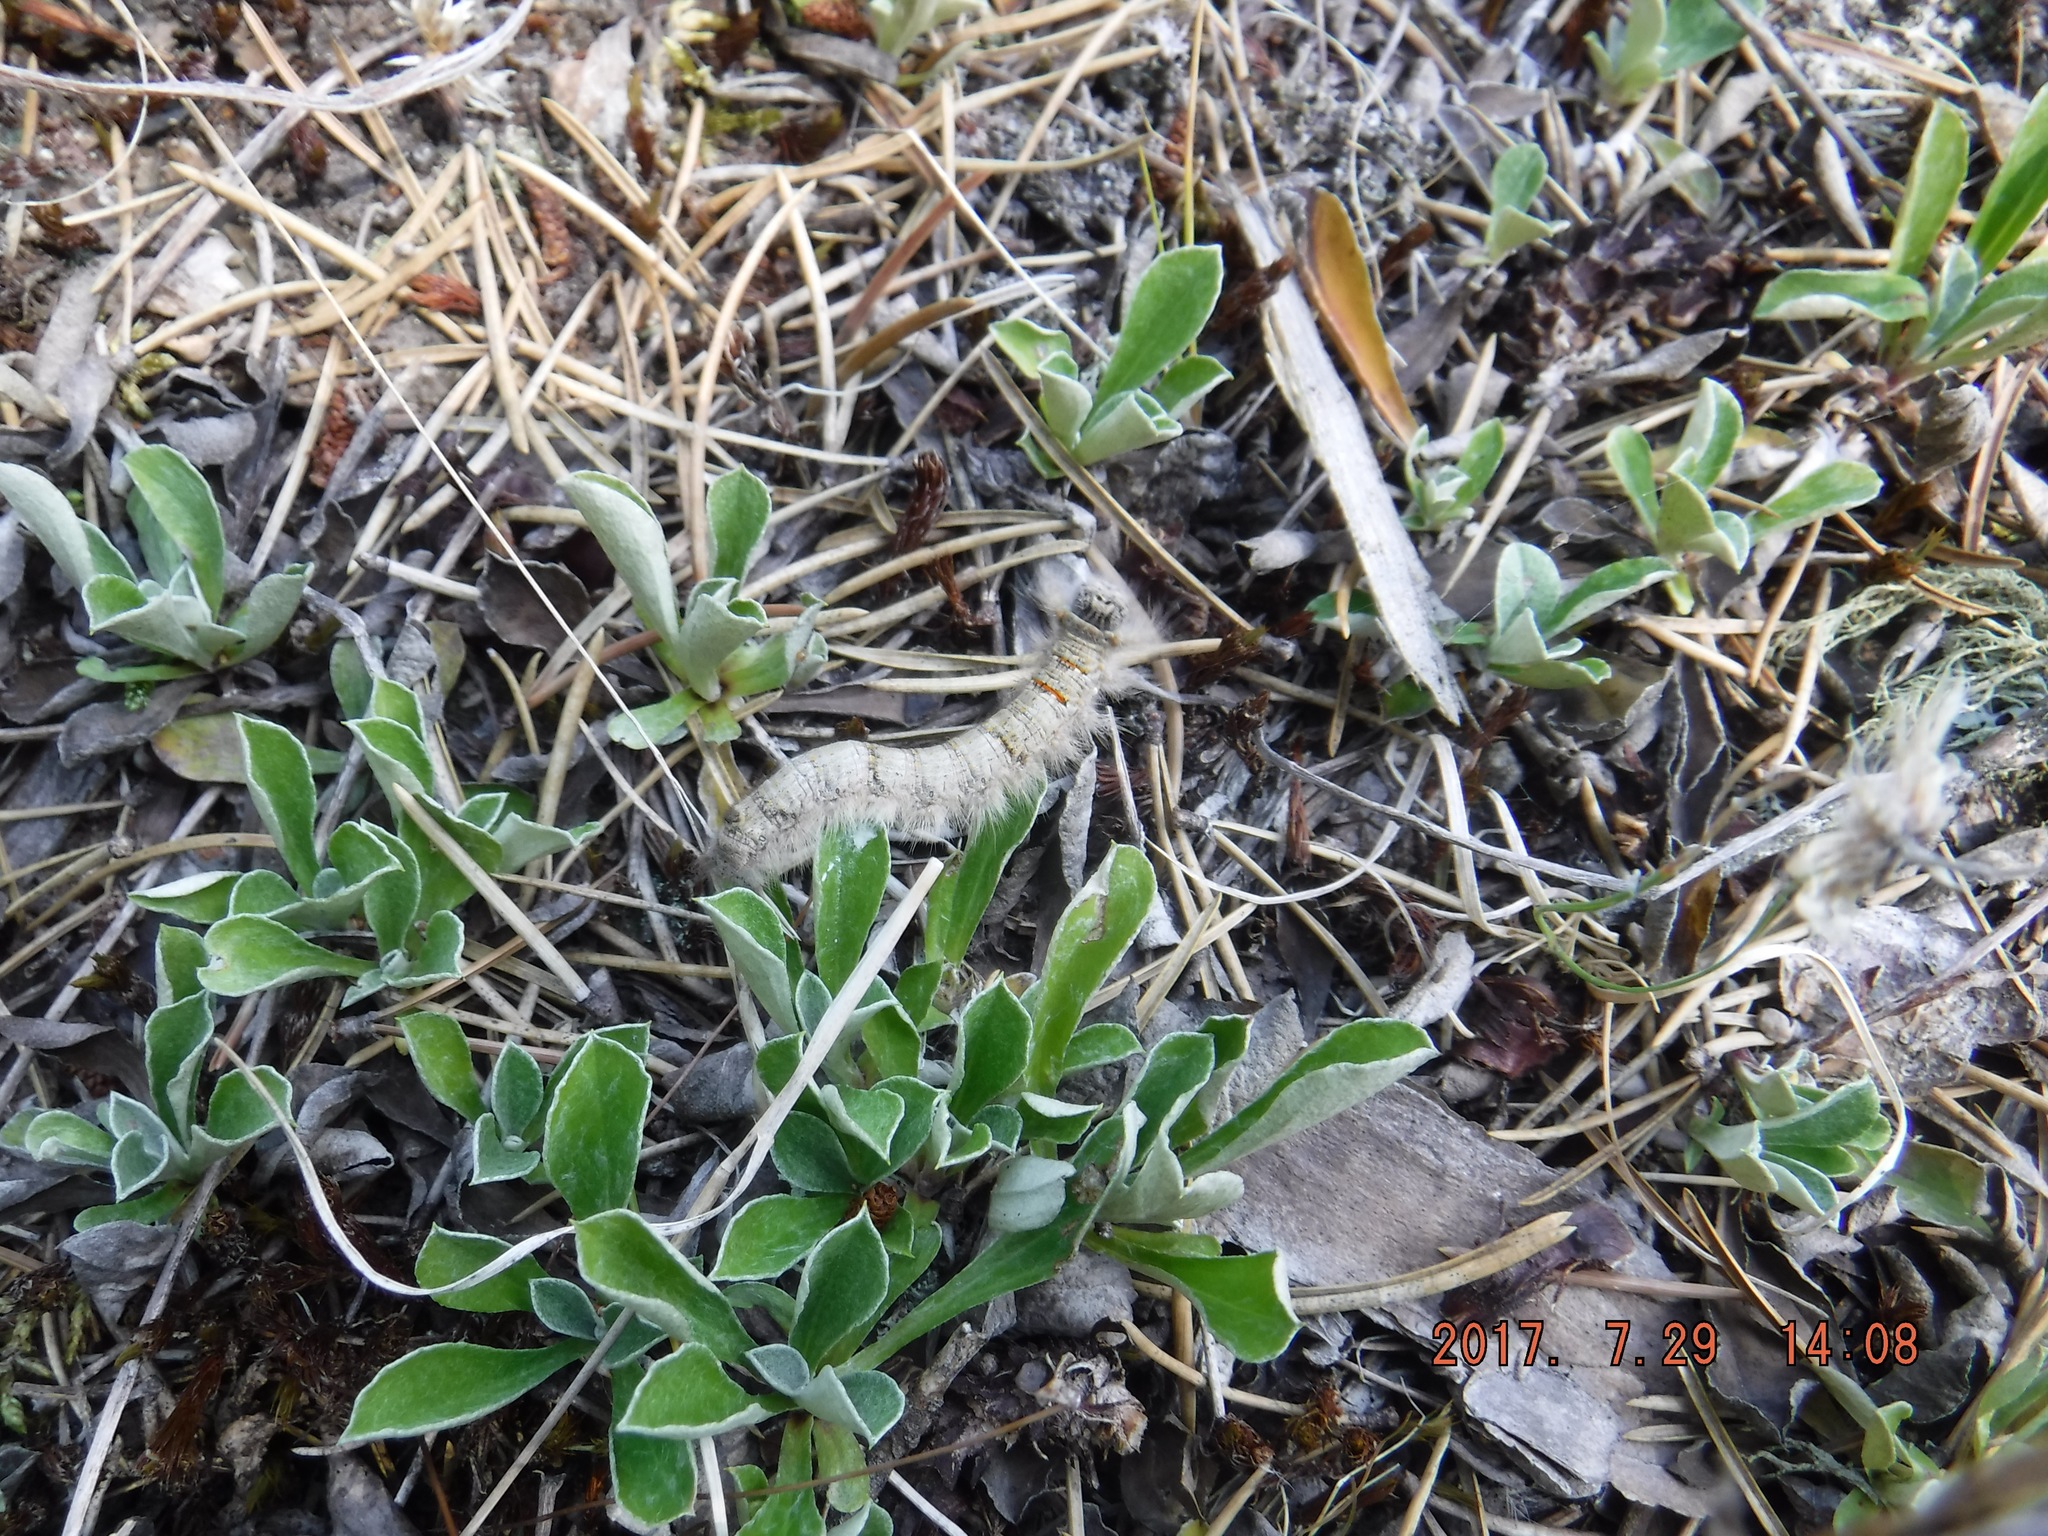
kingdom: Animalia
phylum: Arthropoda
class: Insecta
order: Lepidoptera
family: Lasiocampidae
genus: Phyllodesma
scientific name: Phyllodesma americana
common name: American lappet moth
